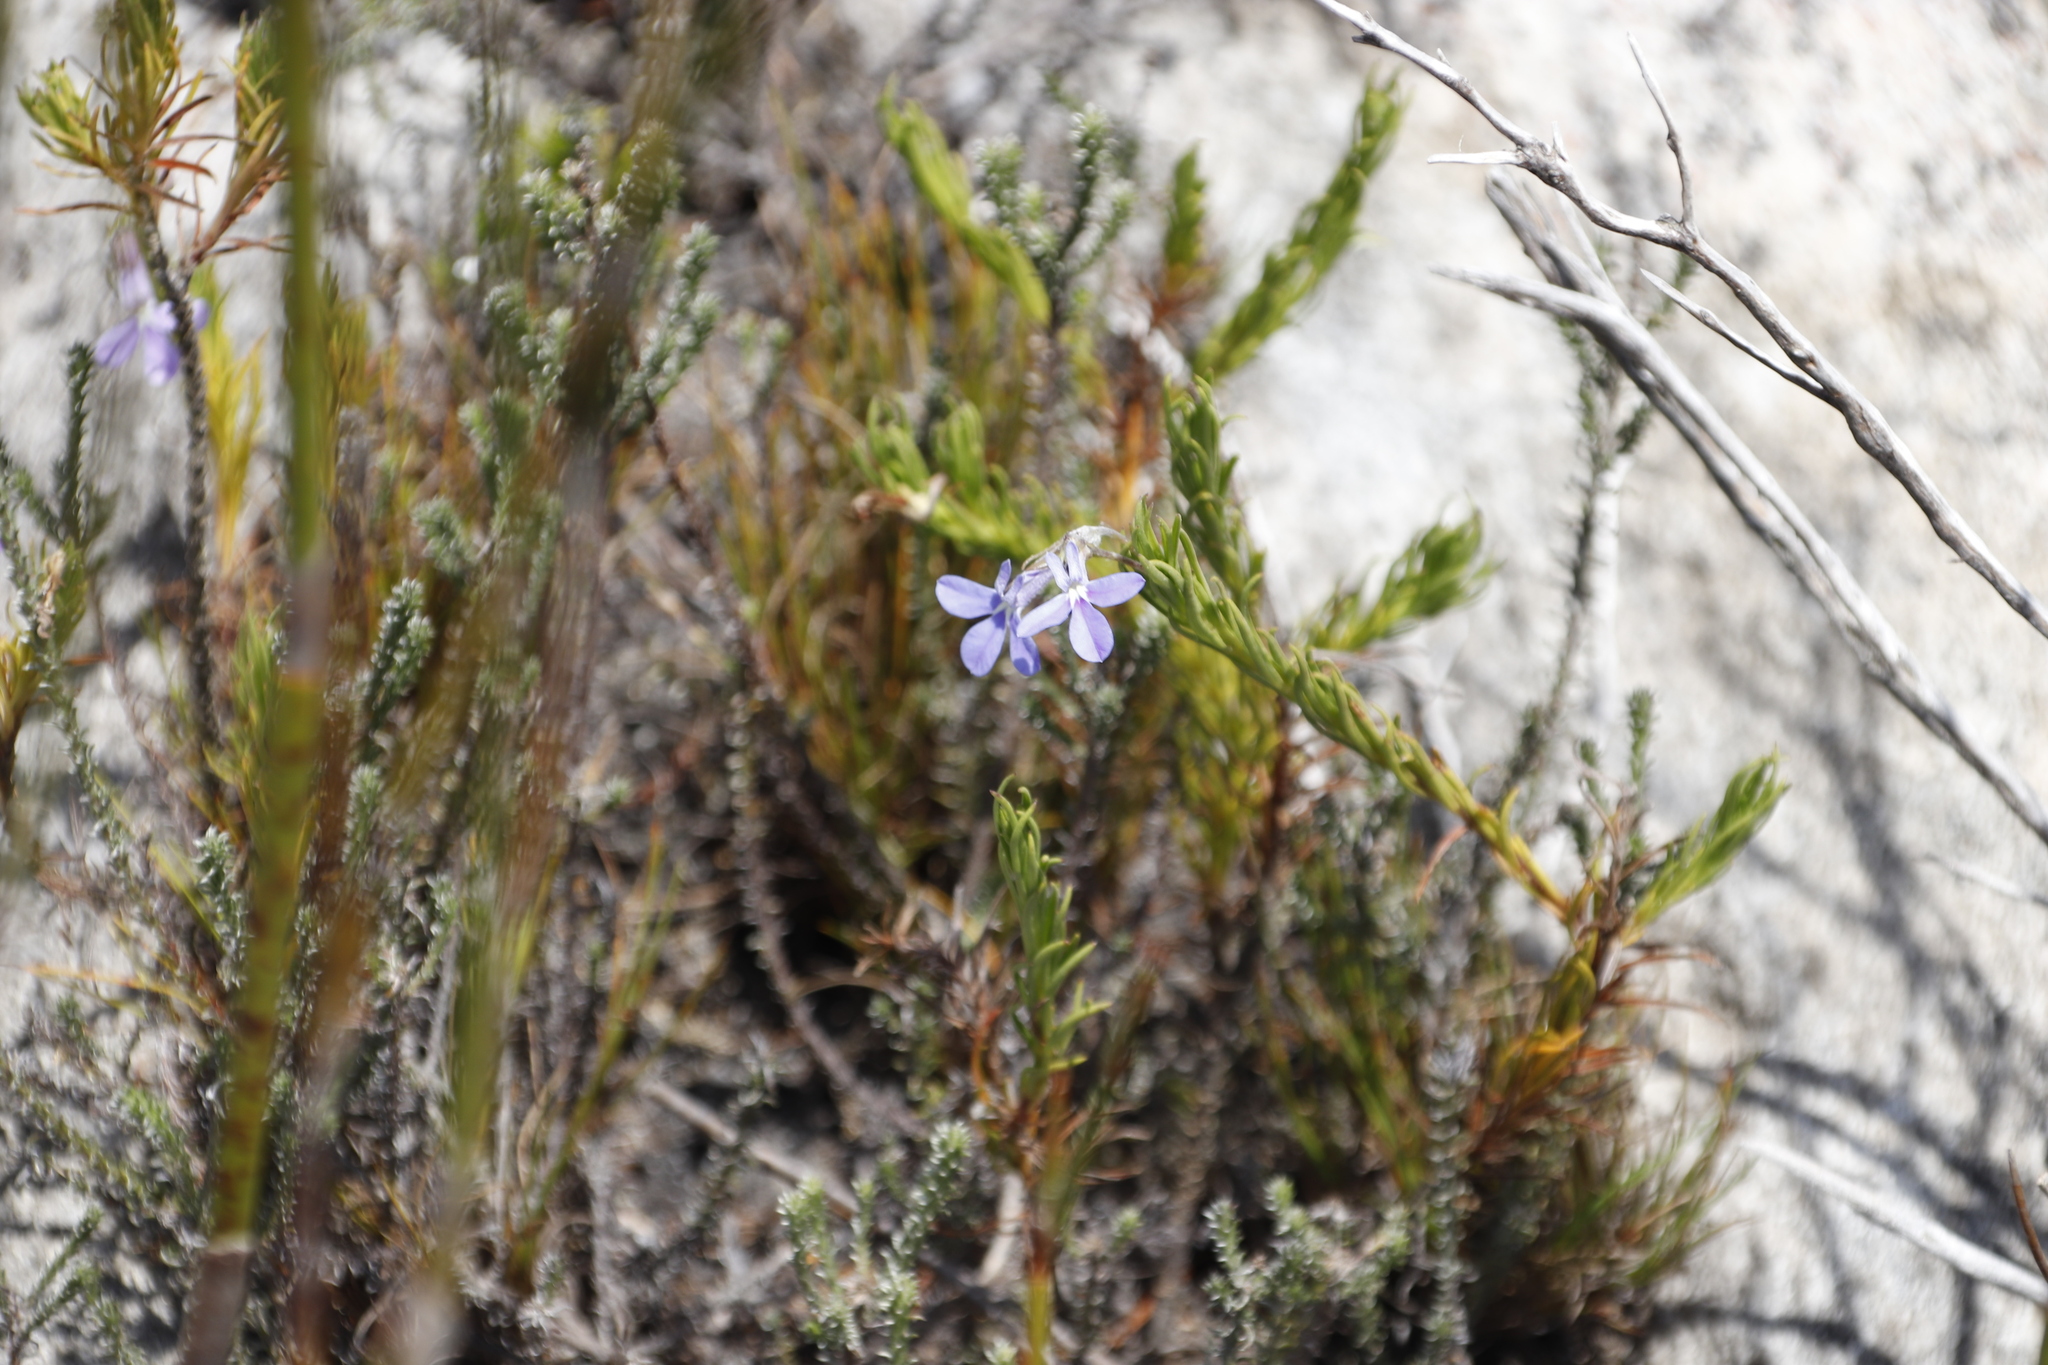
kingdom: Plantae
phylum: Tracheophyta
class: Magnoliopsida
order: Asterales
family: Campanulaceae
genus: Lobelia
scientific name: Lobelia pinifolia
